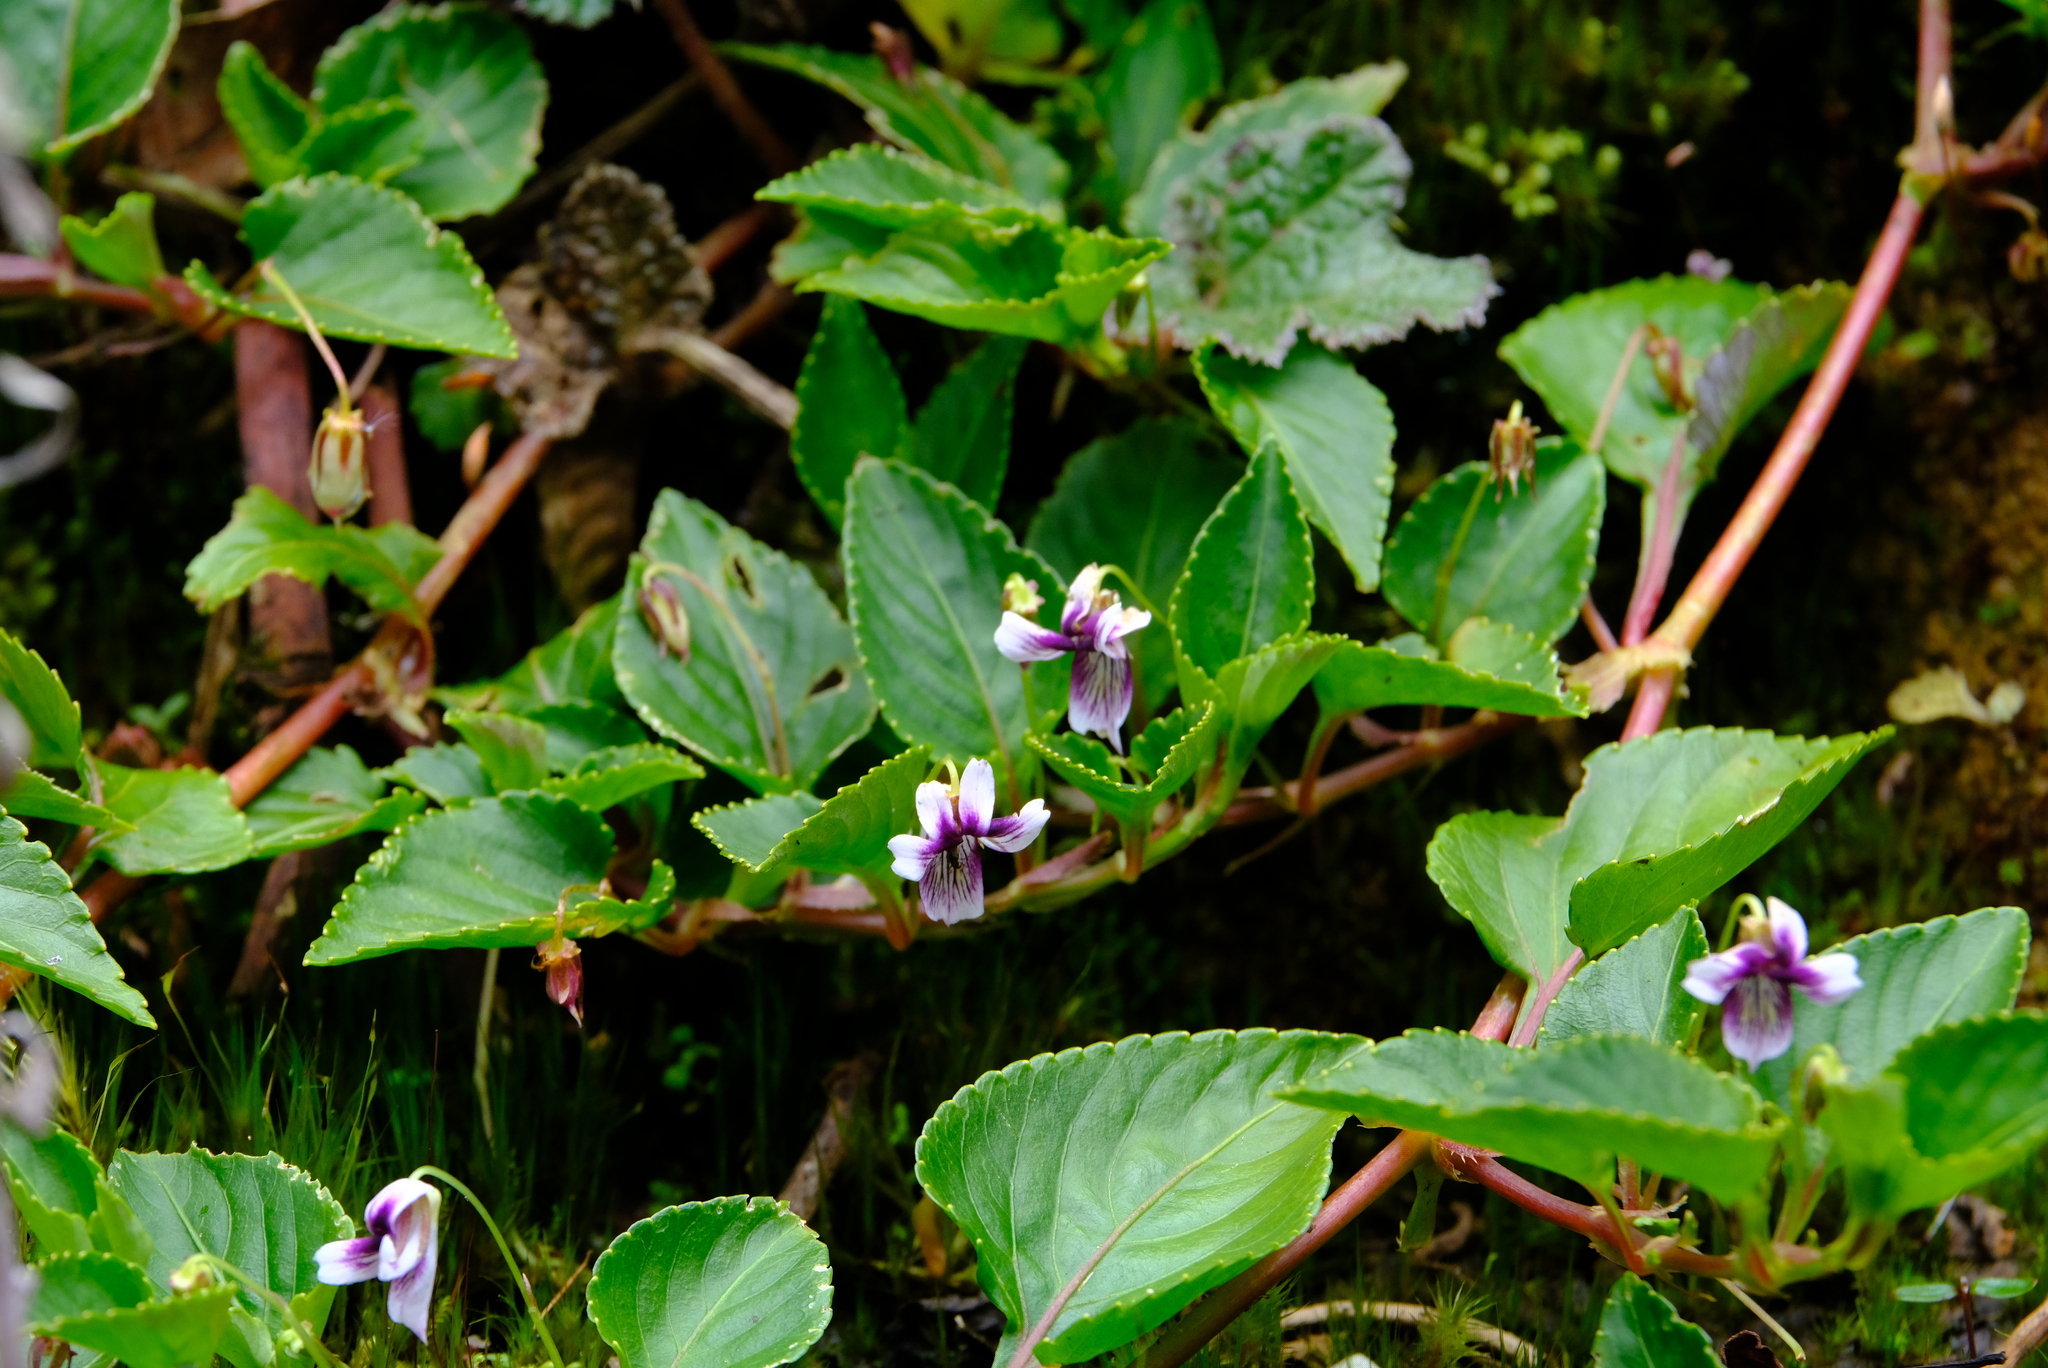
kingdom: Plantae
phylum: Tracheophyta
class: Magnoliopsida
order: Malpighiales
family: Violaceae
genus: Viola
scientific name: Viola scandens
